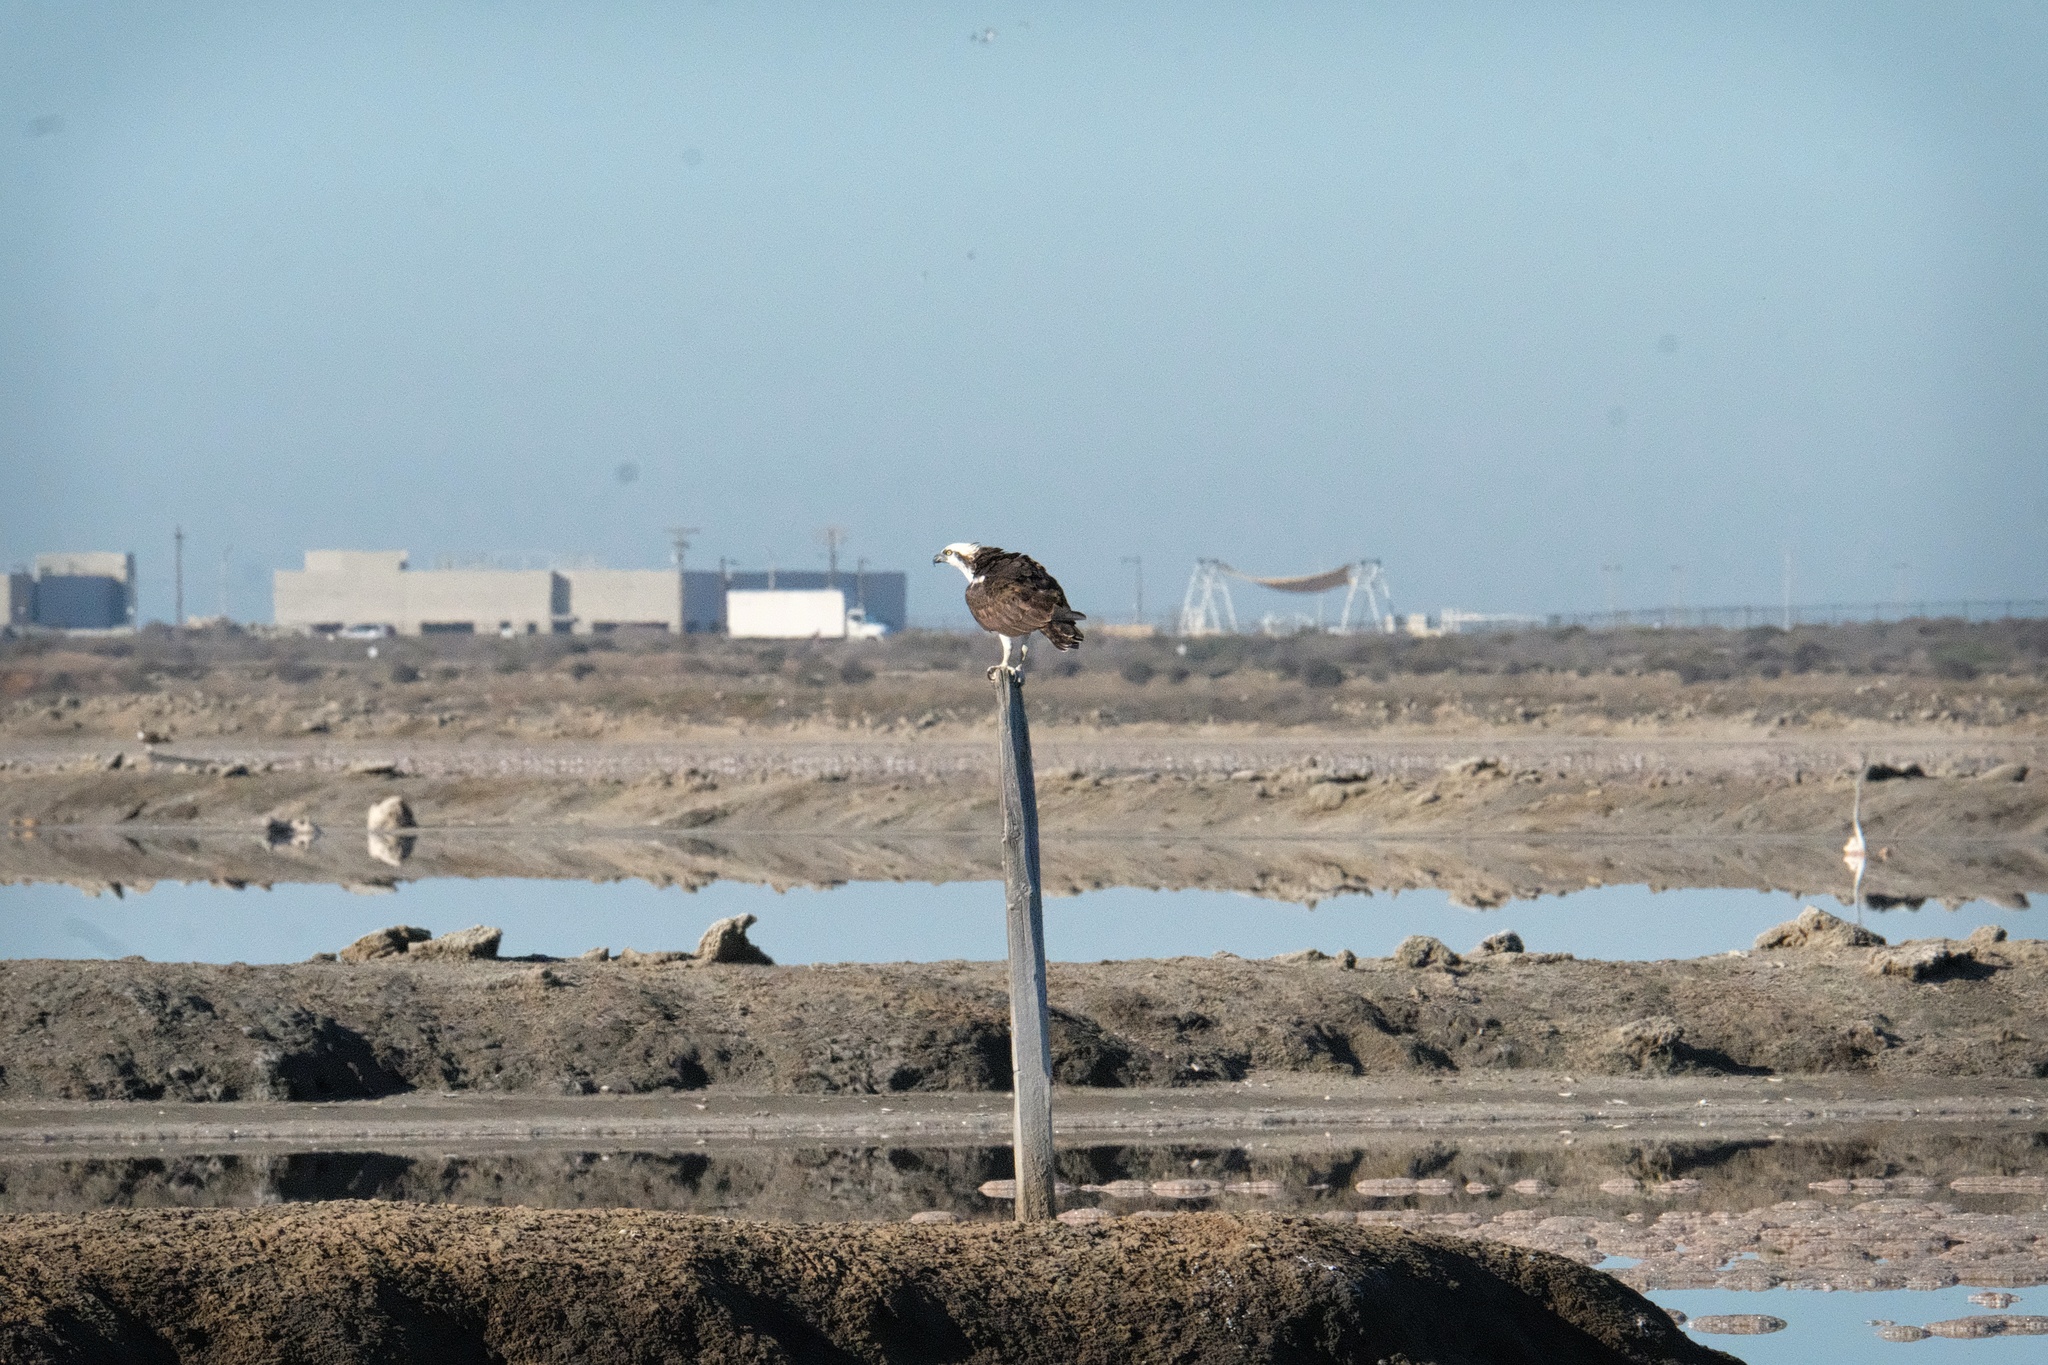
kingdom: Animalia
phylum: Chordata
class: Aves
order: Accipitriformes
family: Pandionidae
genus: Pandion
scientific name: Pandion haliaetus
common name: Osprey
